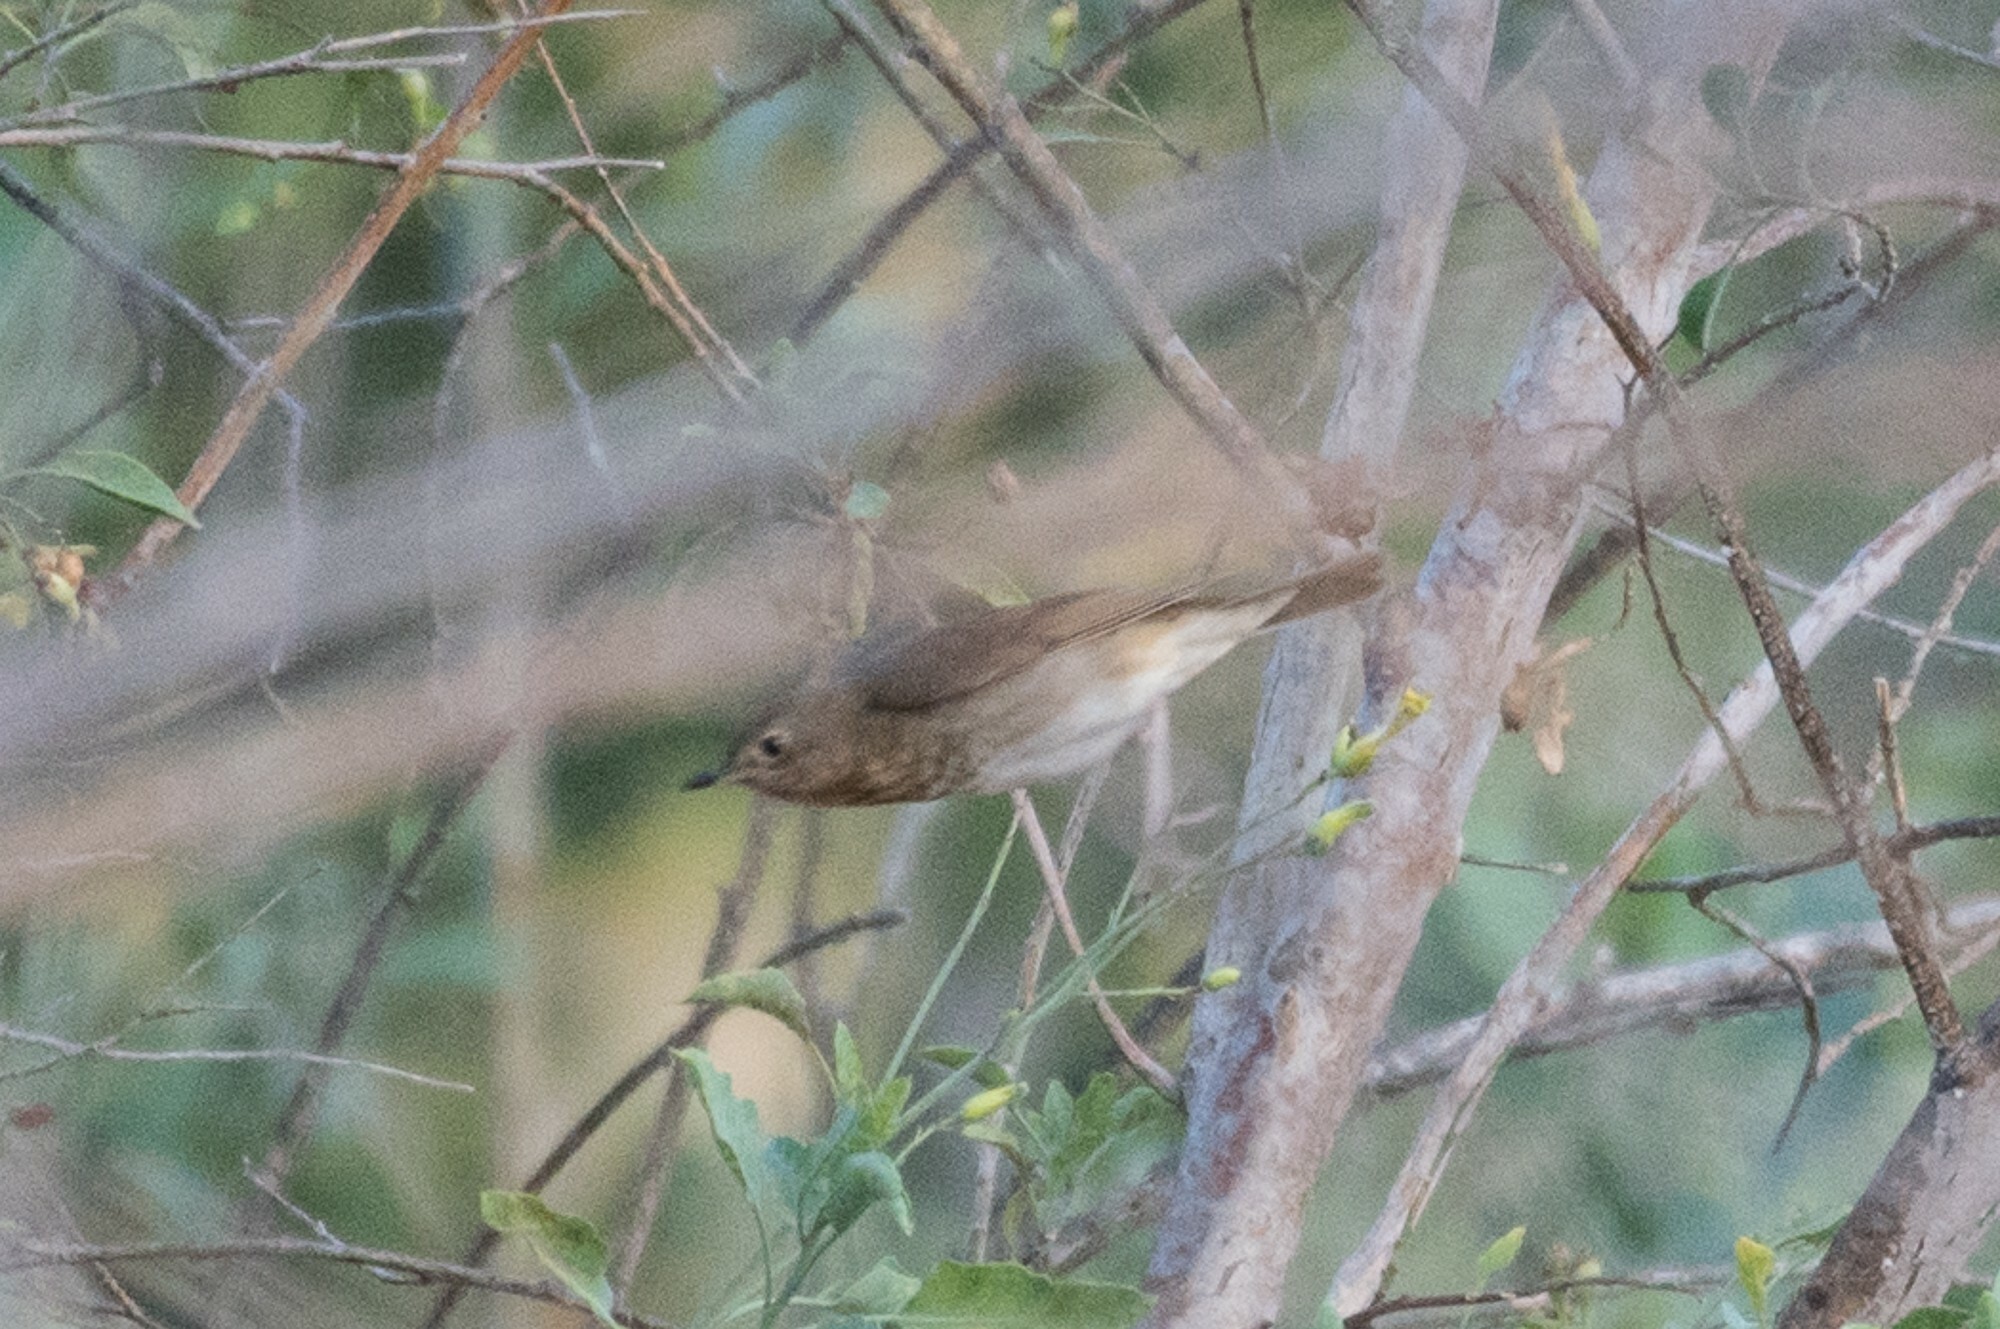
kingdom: Animalia
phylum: Chordata
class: Aves
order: Passeriformes
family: Turdidae
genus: Catharus
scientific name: Catharus ustulatus
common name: Swainson's thrush
